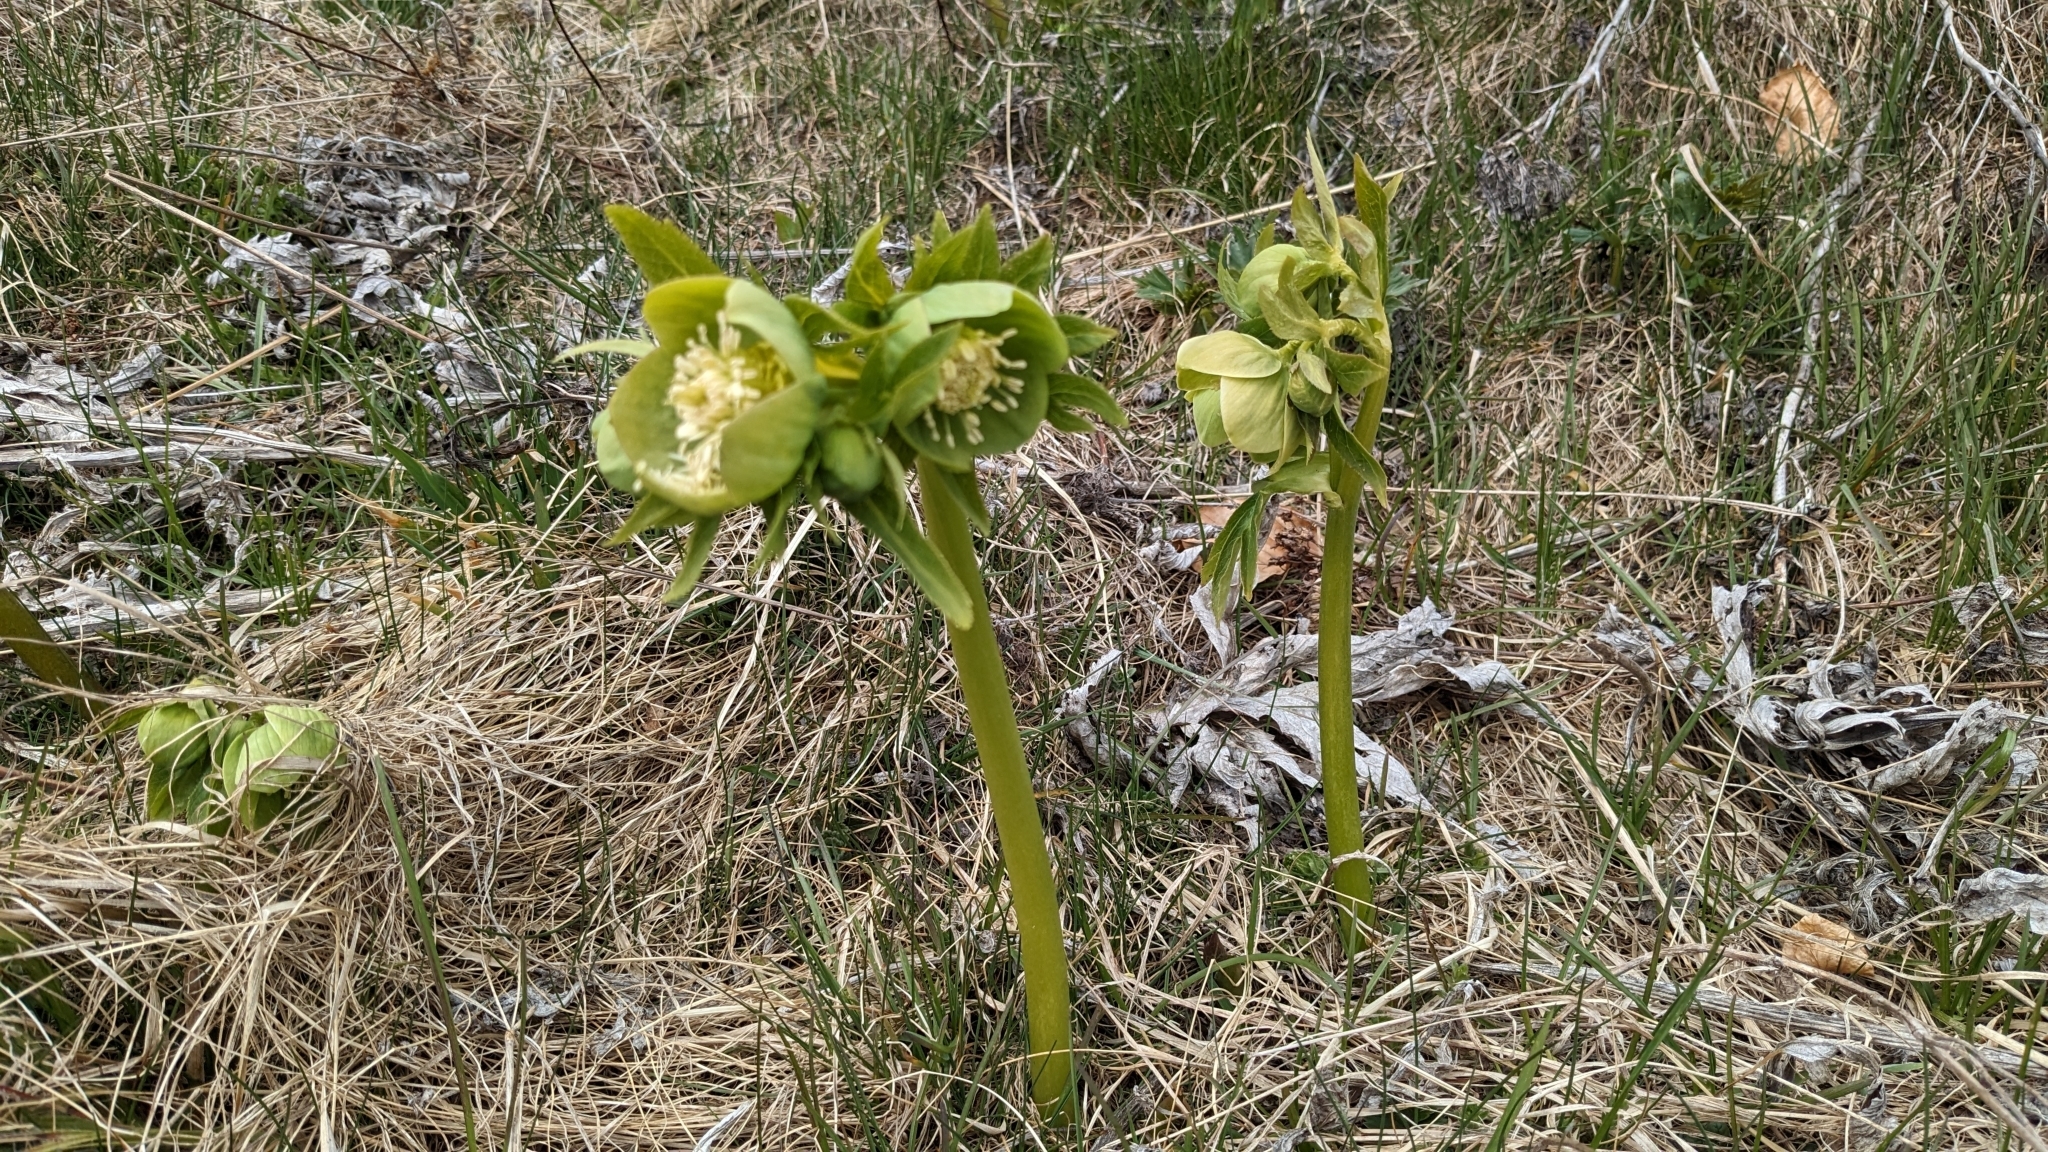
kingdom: Plantae
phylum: Tracheophyta
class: Magnoliopsida
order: Ranunculales
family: Ranunculaceae
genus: Helleborus
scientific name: Helleborus viridis
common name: Green hellebore
